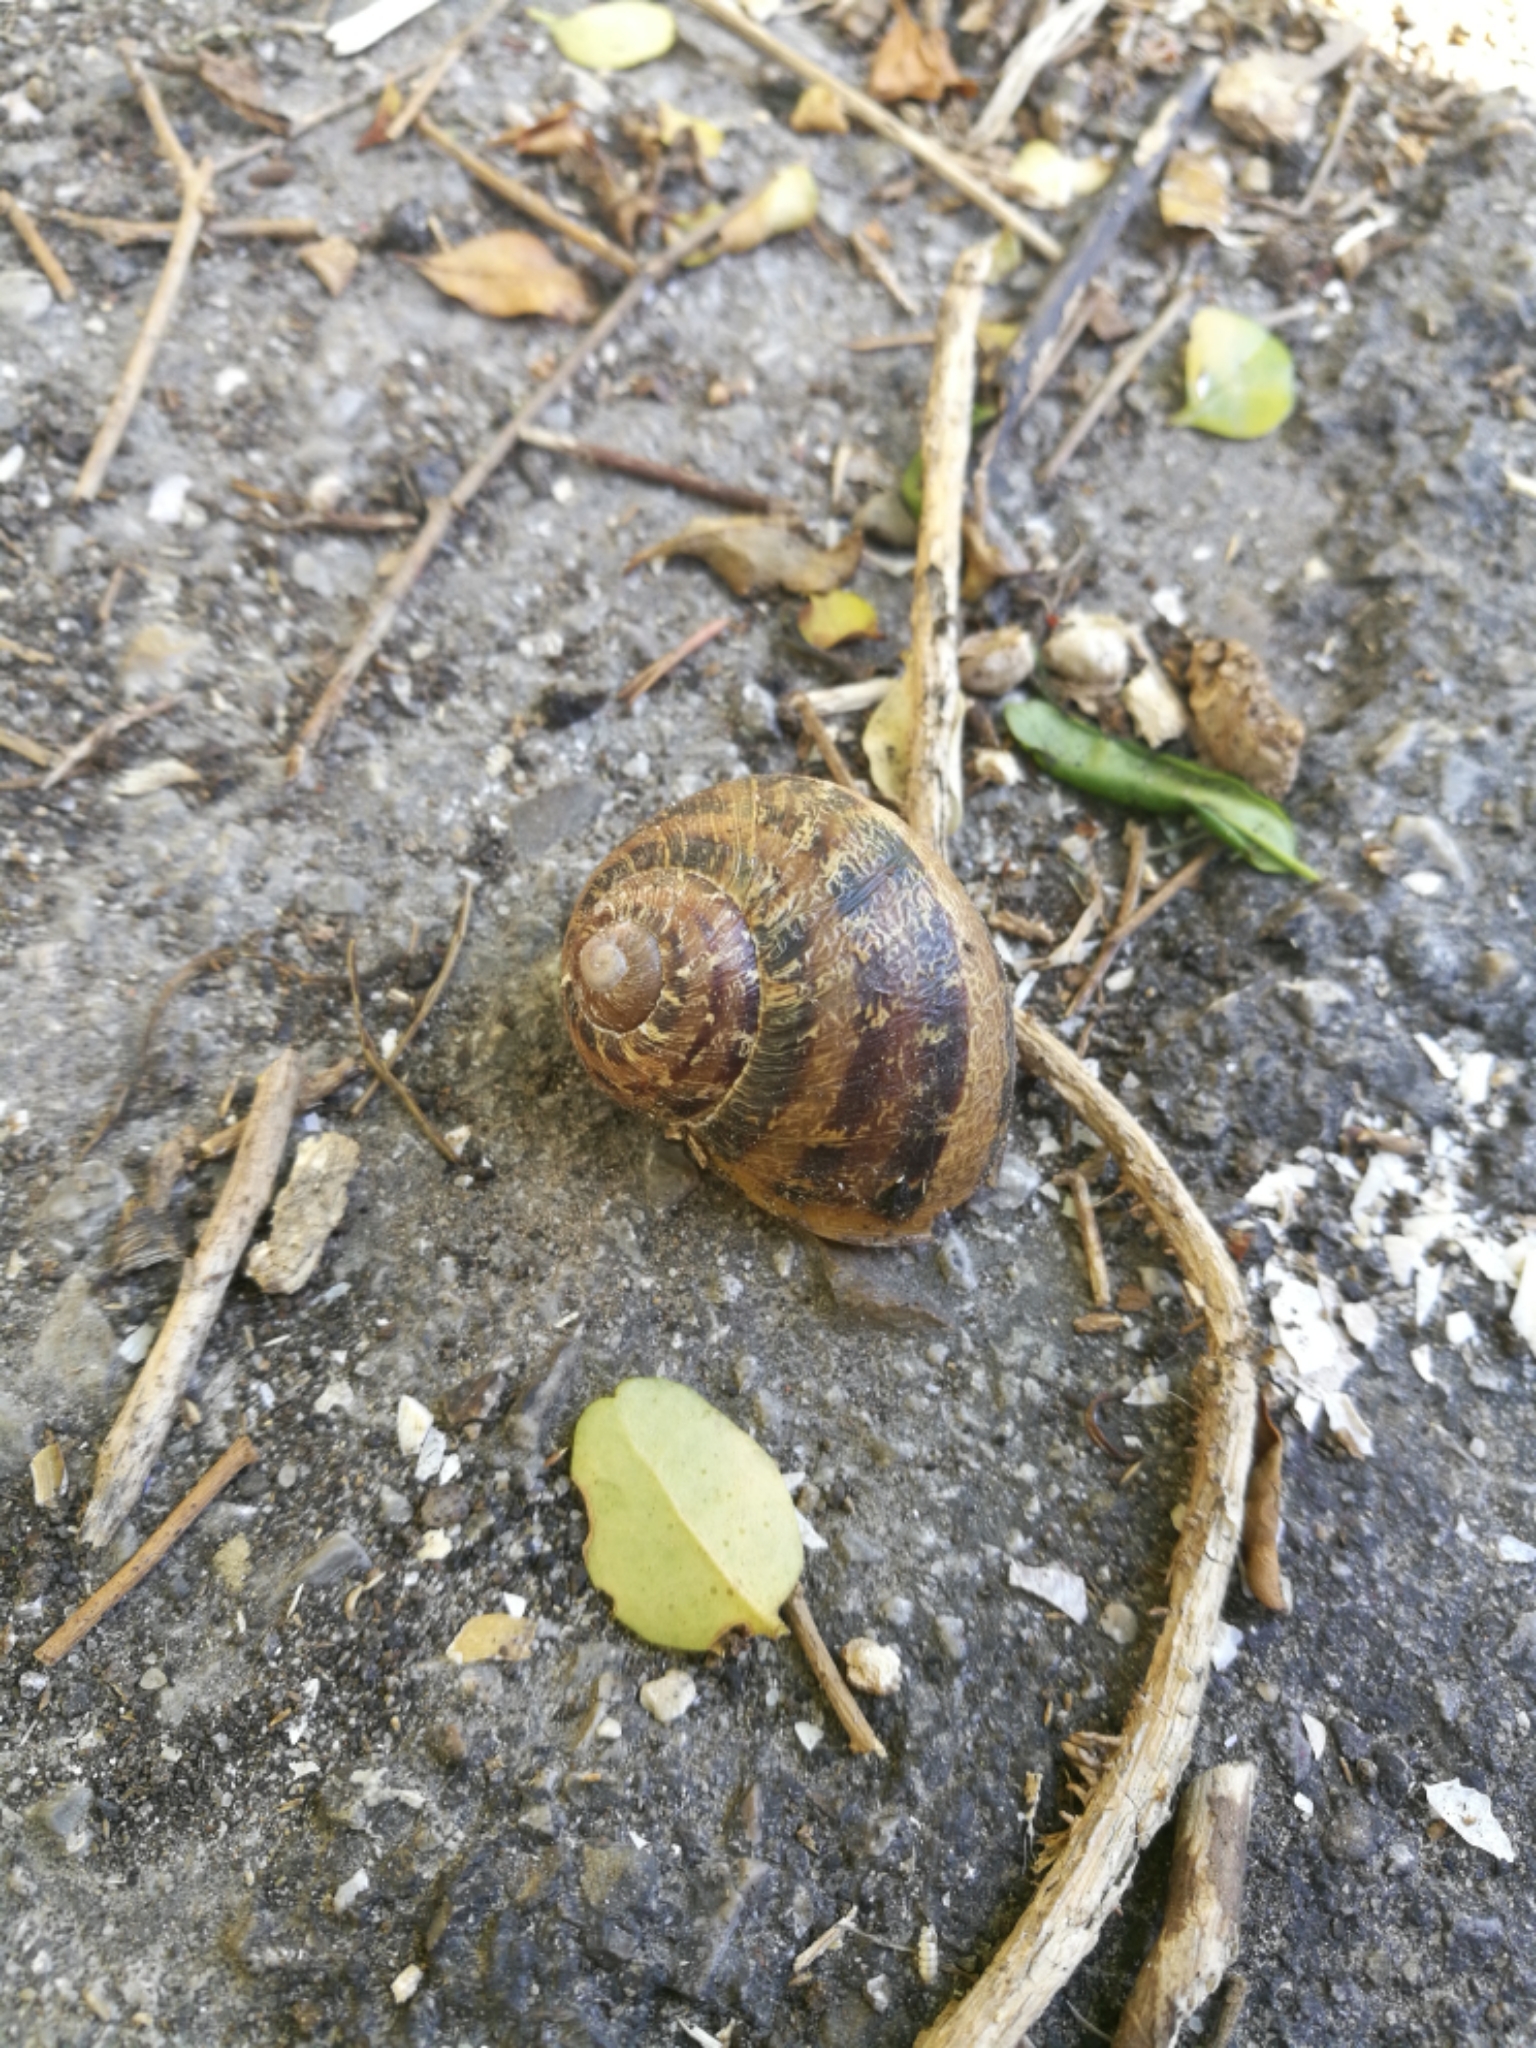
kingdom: Animalia
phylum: Mollusca
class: Gastropoda
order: Stylommatophora
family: Helicidae
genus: Cornu
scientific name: Cornu aspersum
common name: Brown garden snail
